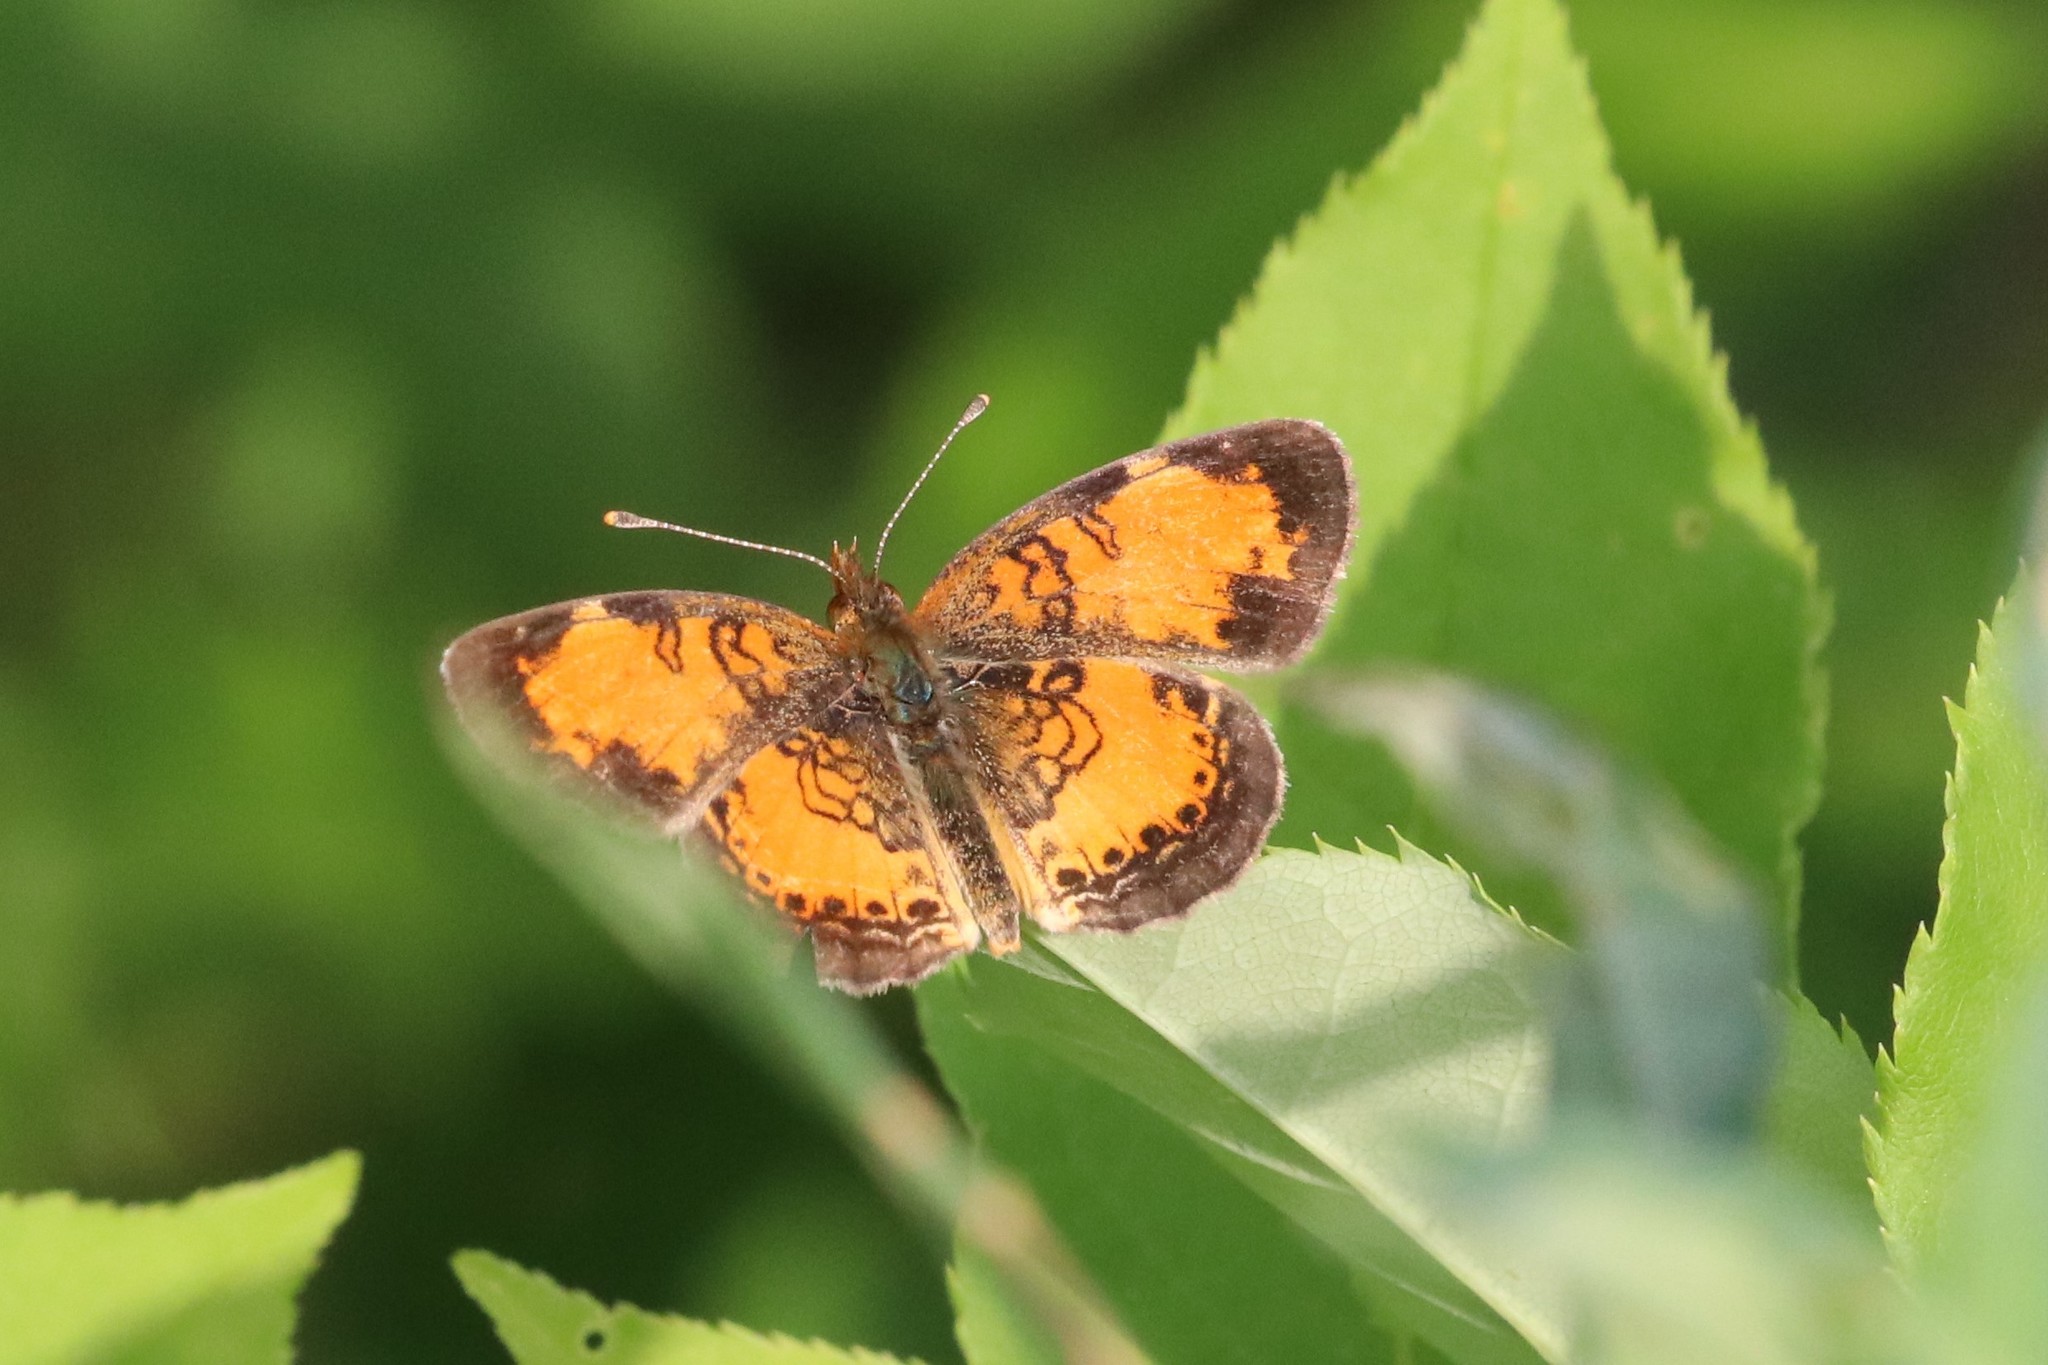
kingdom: Animalia
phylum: Arthropoda
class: Insecta
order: Lepidoptera
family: Nymphalidae
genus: Phyciodes
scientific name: Phyciodes tharos
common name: Pearl crescent
